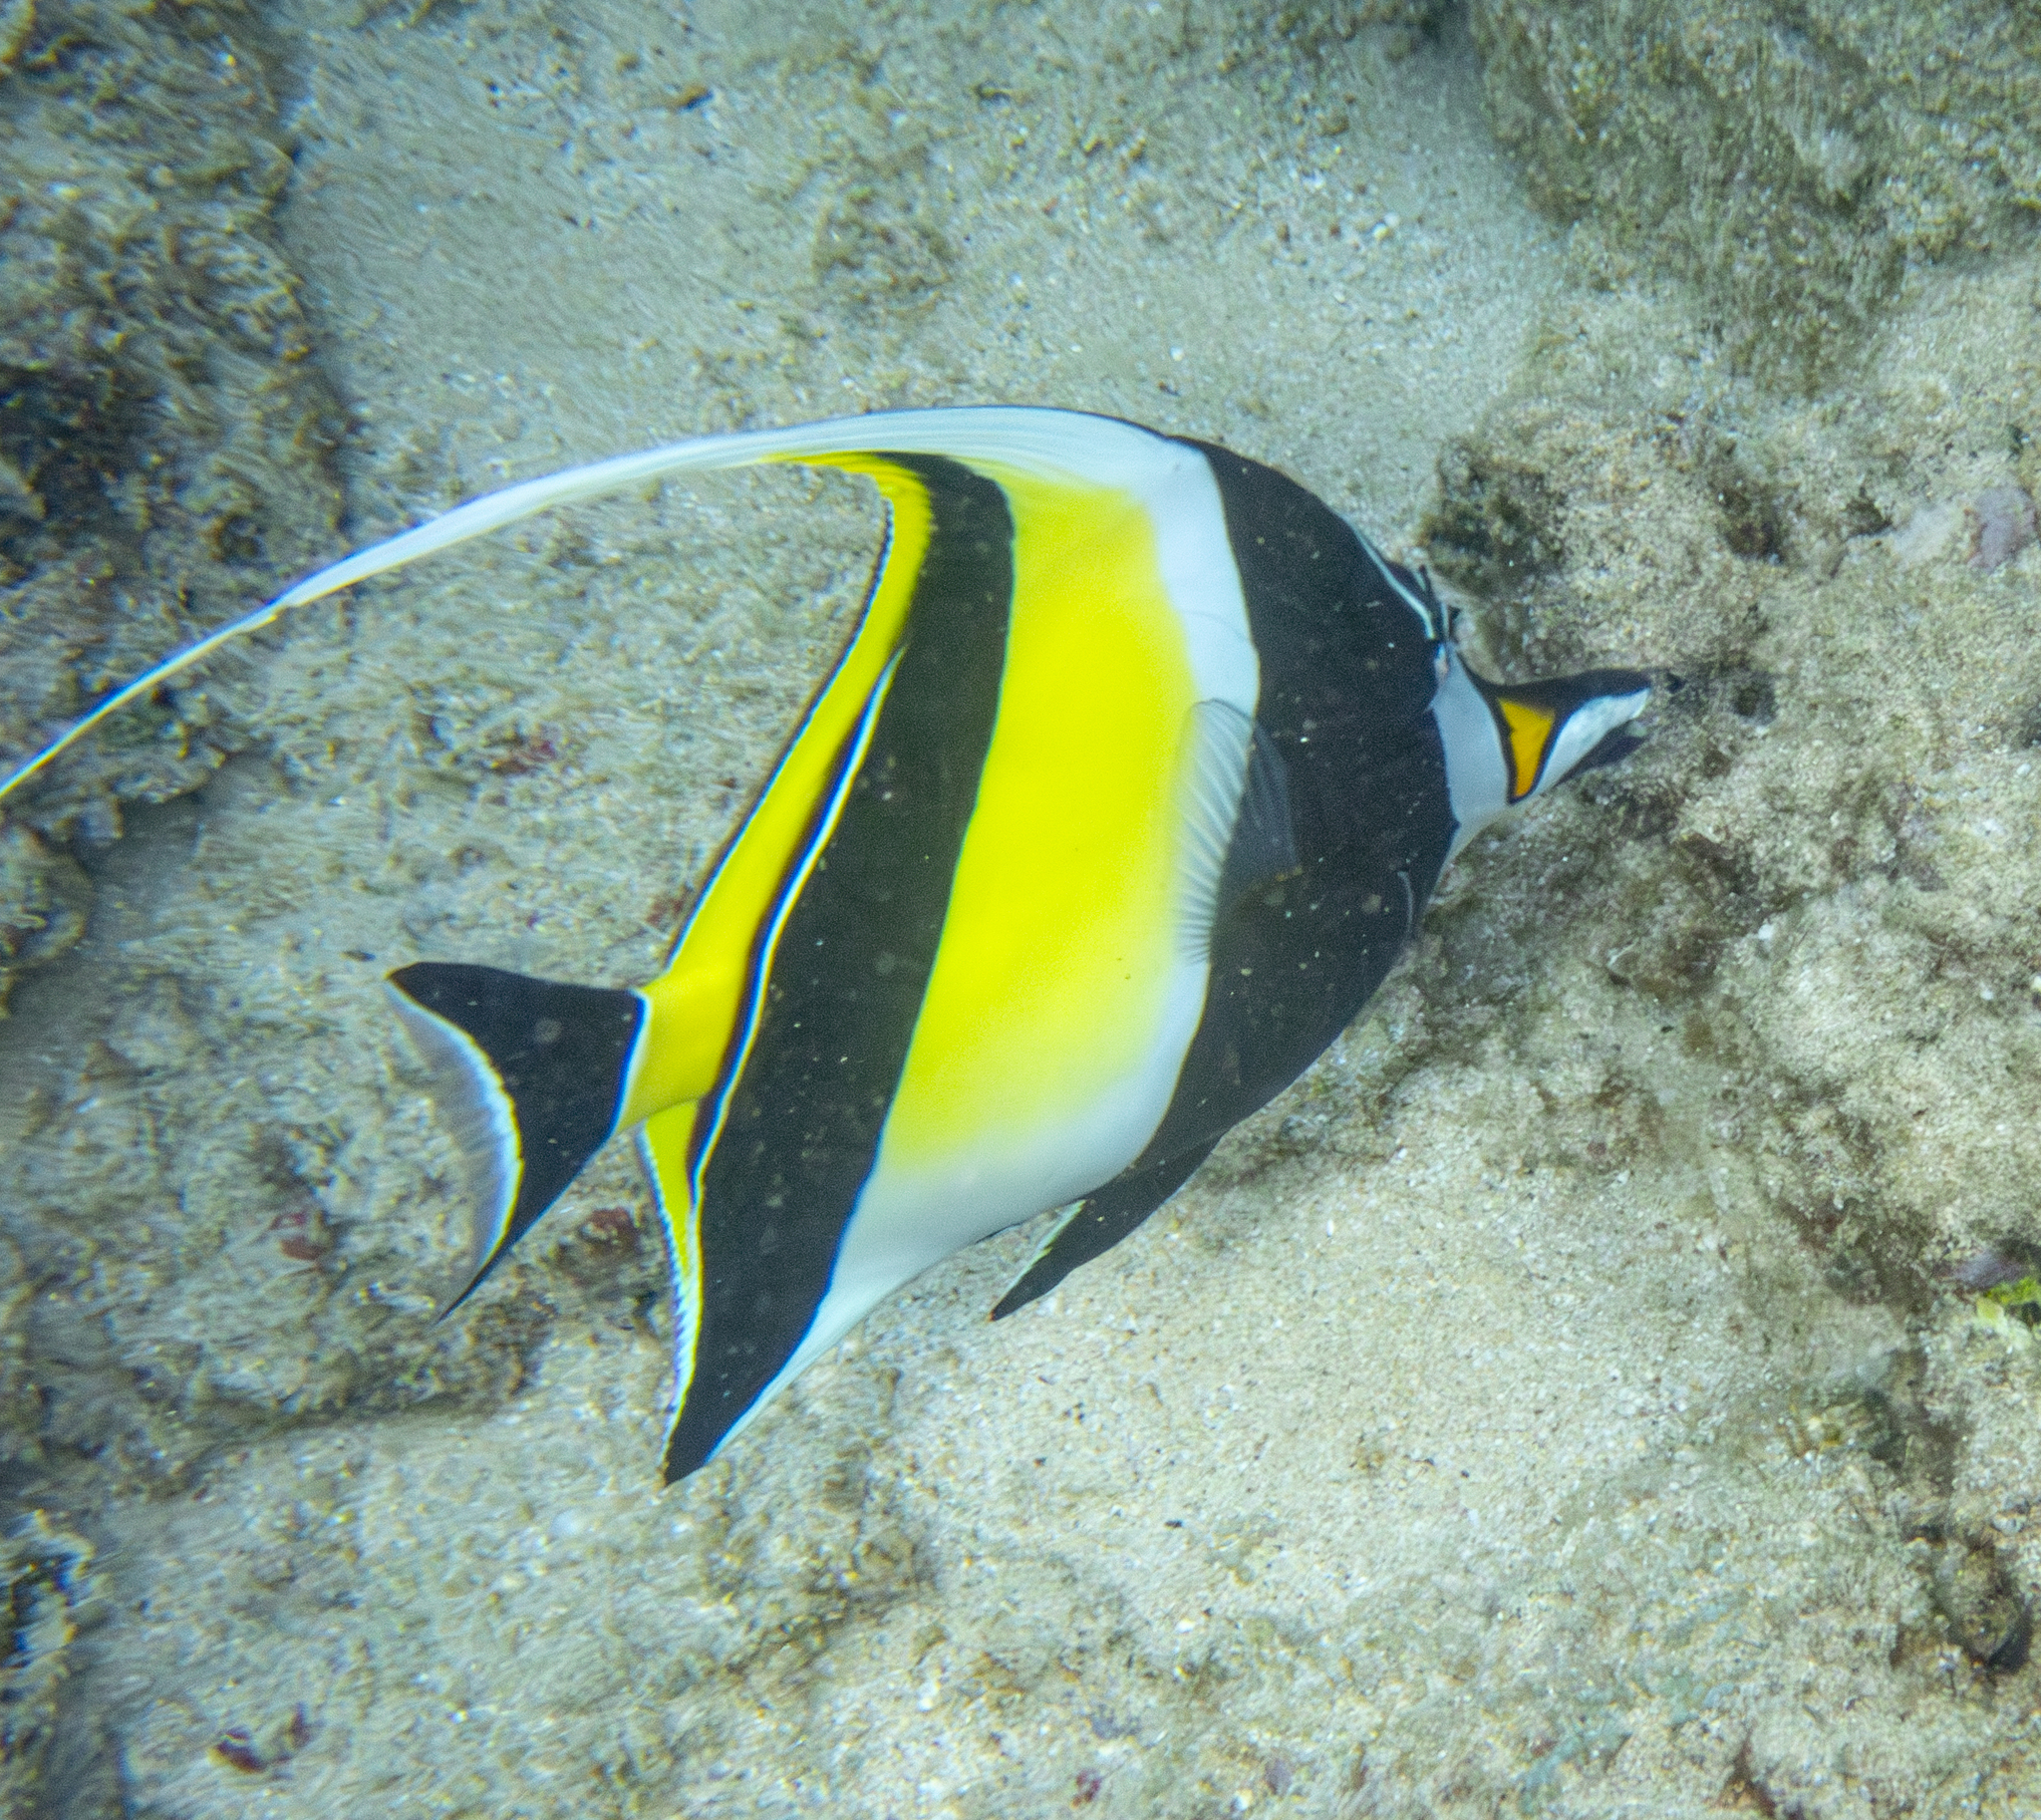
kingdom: Animalia
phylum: Chordata
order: Perciformes
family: Zanclidae
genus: Zanclus
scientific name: Zanclus cornutus
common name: Moorish idol
